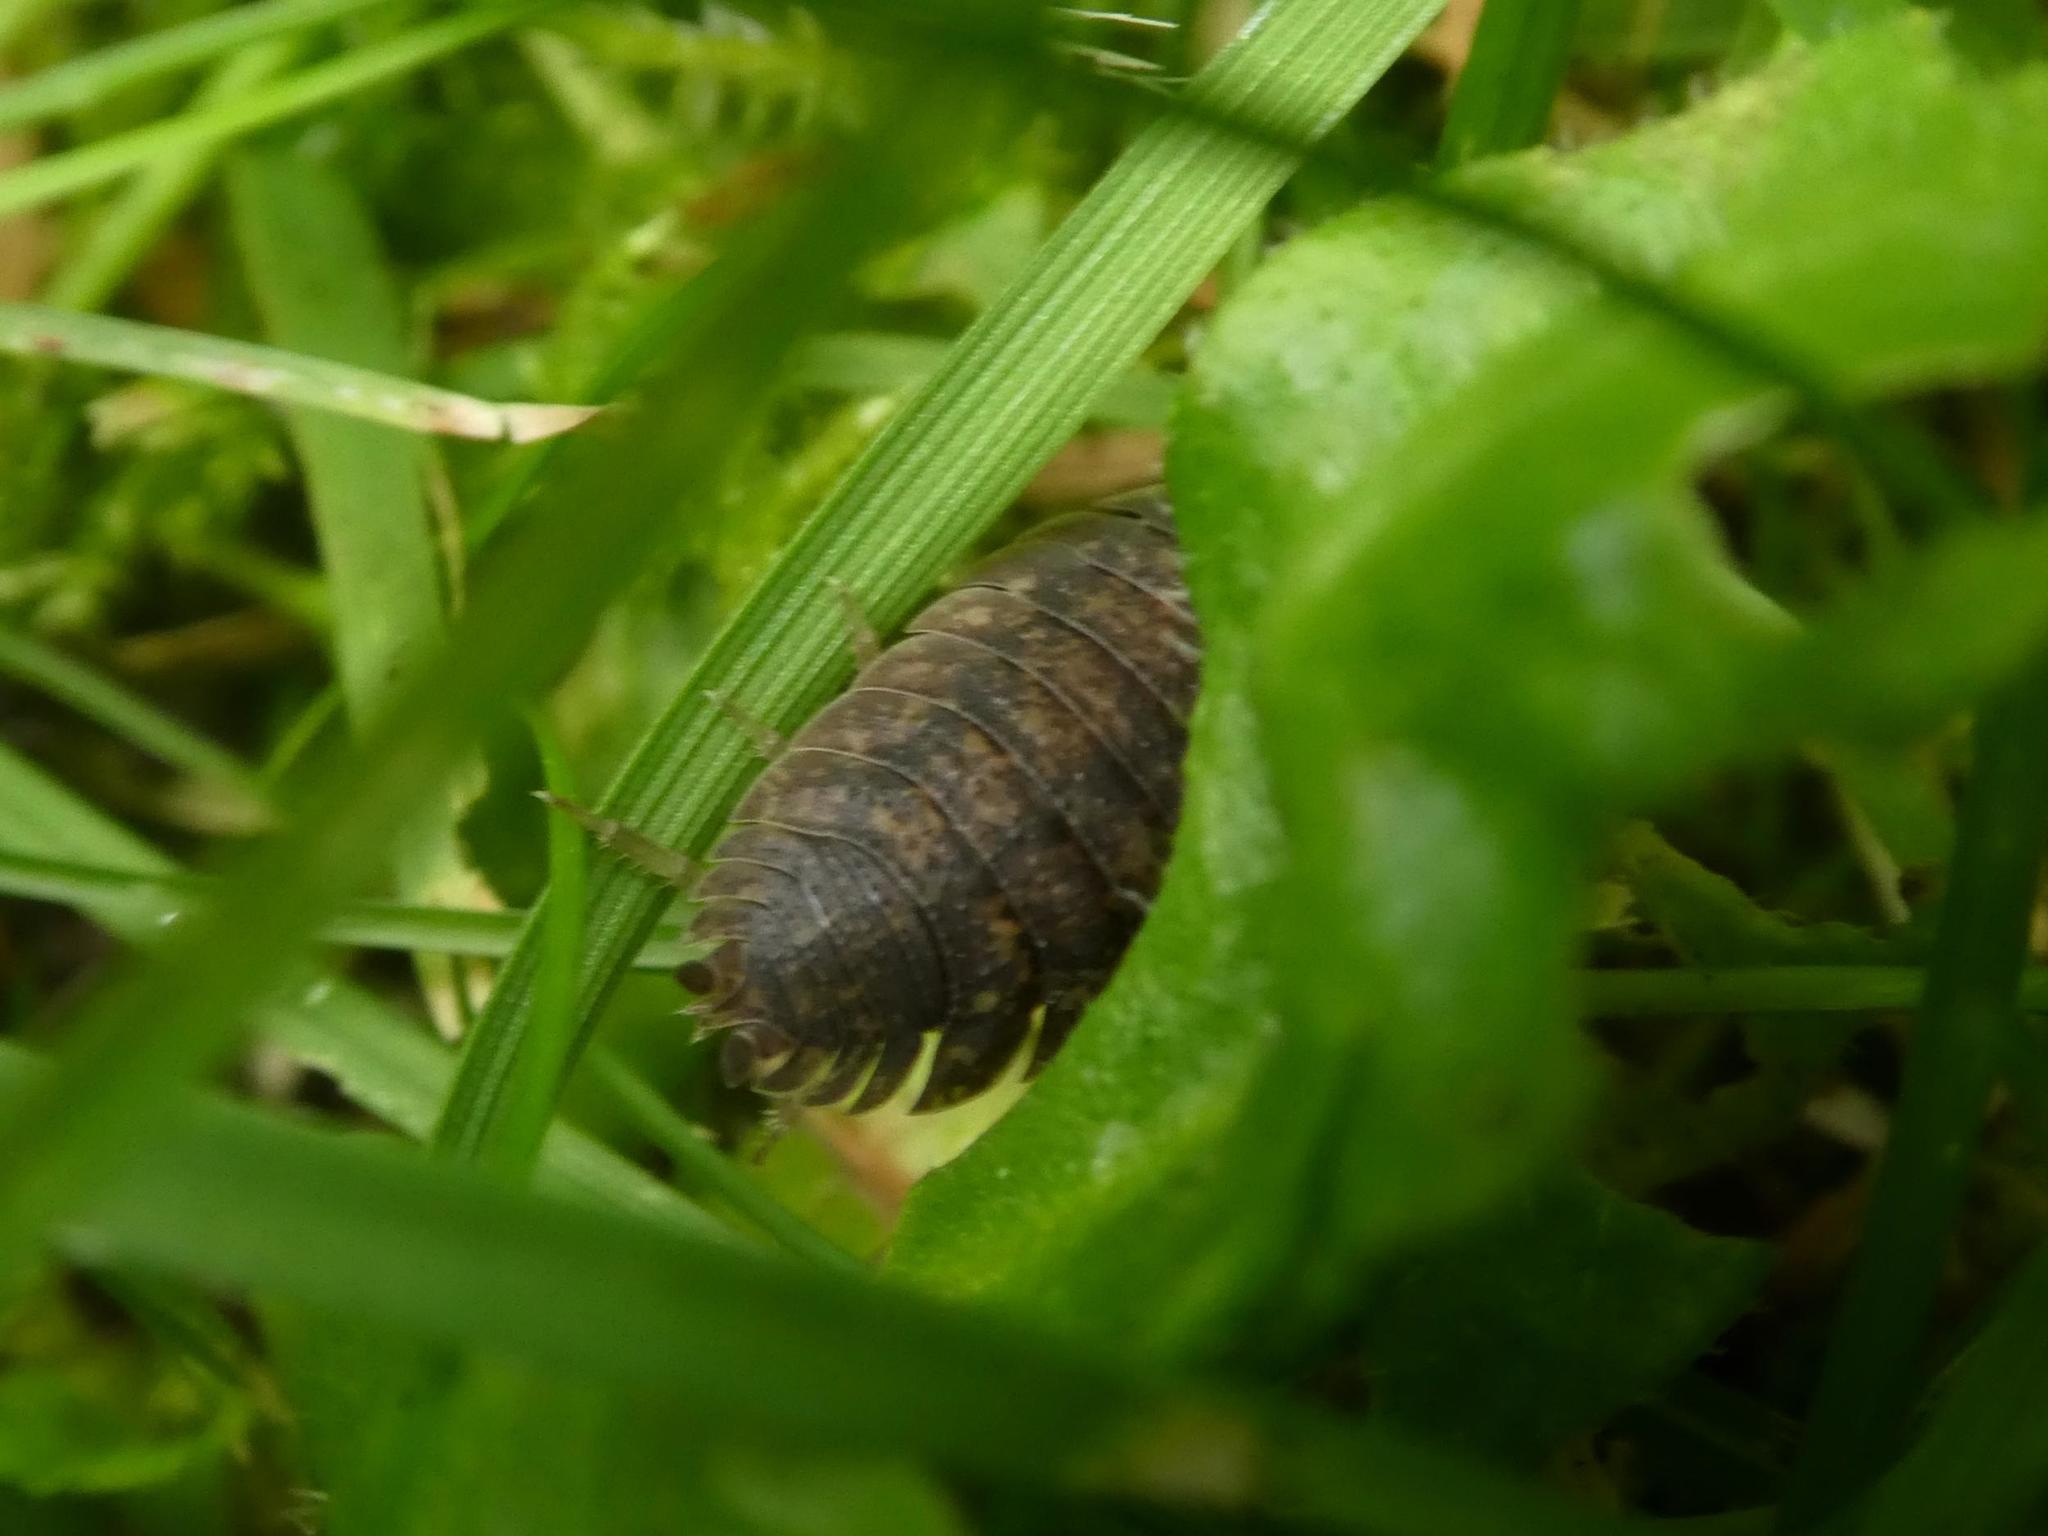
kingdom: Animalia
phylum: Arthropoda
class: Malacostraca
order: Isopoda
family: Porcellionidae
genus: Porcellio
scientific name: Porcellio scaber
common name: Common rough woodlouse
